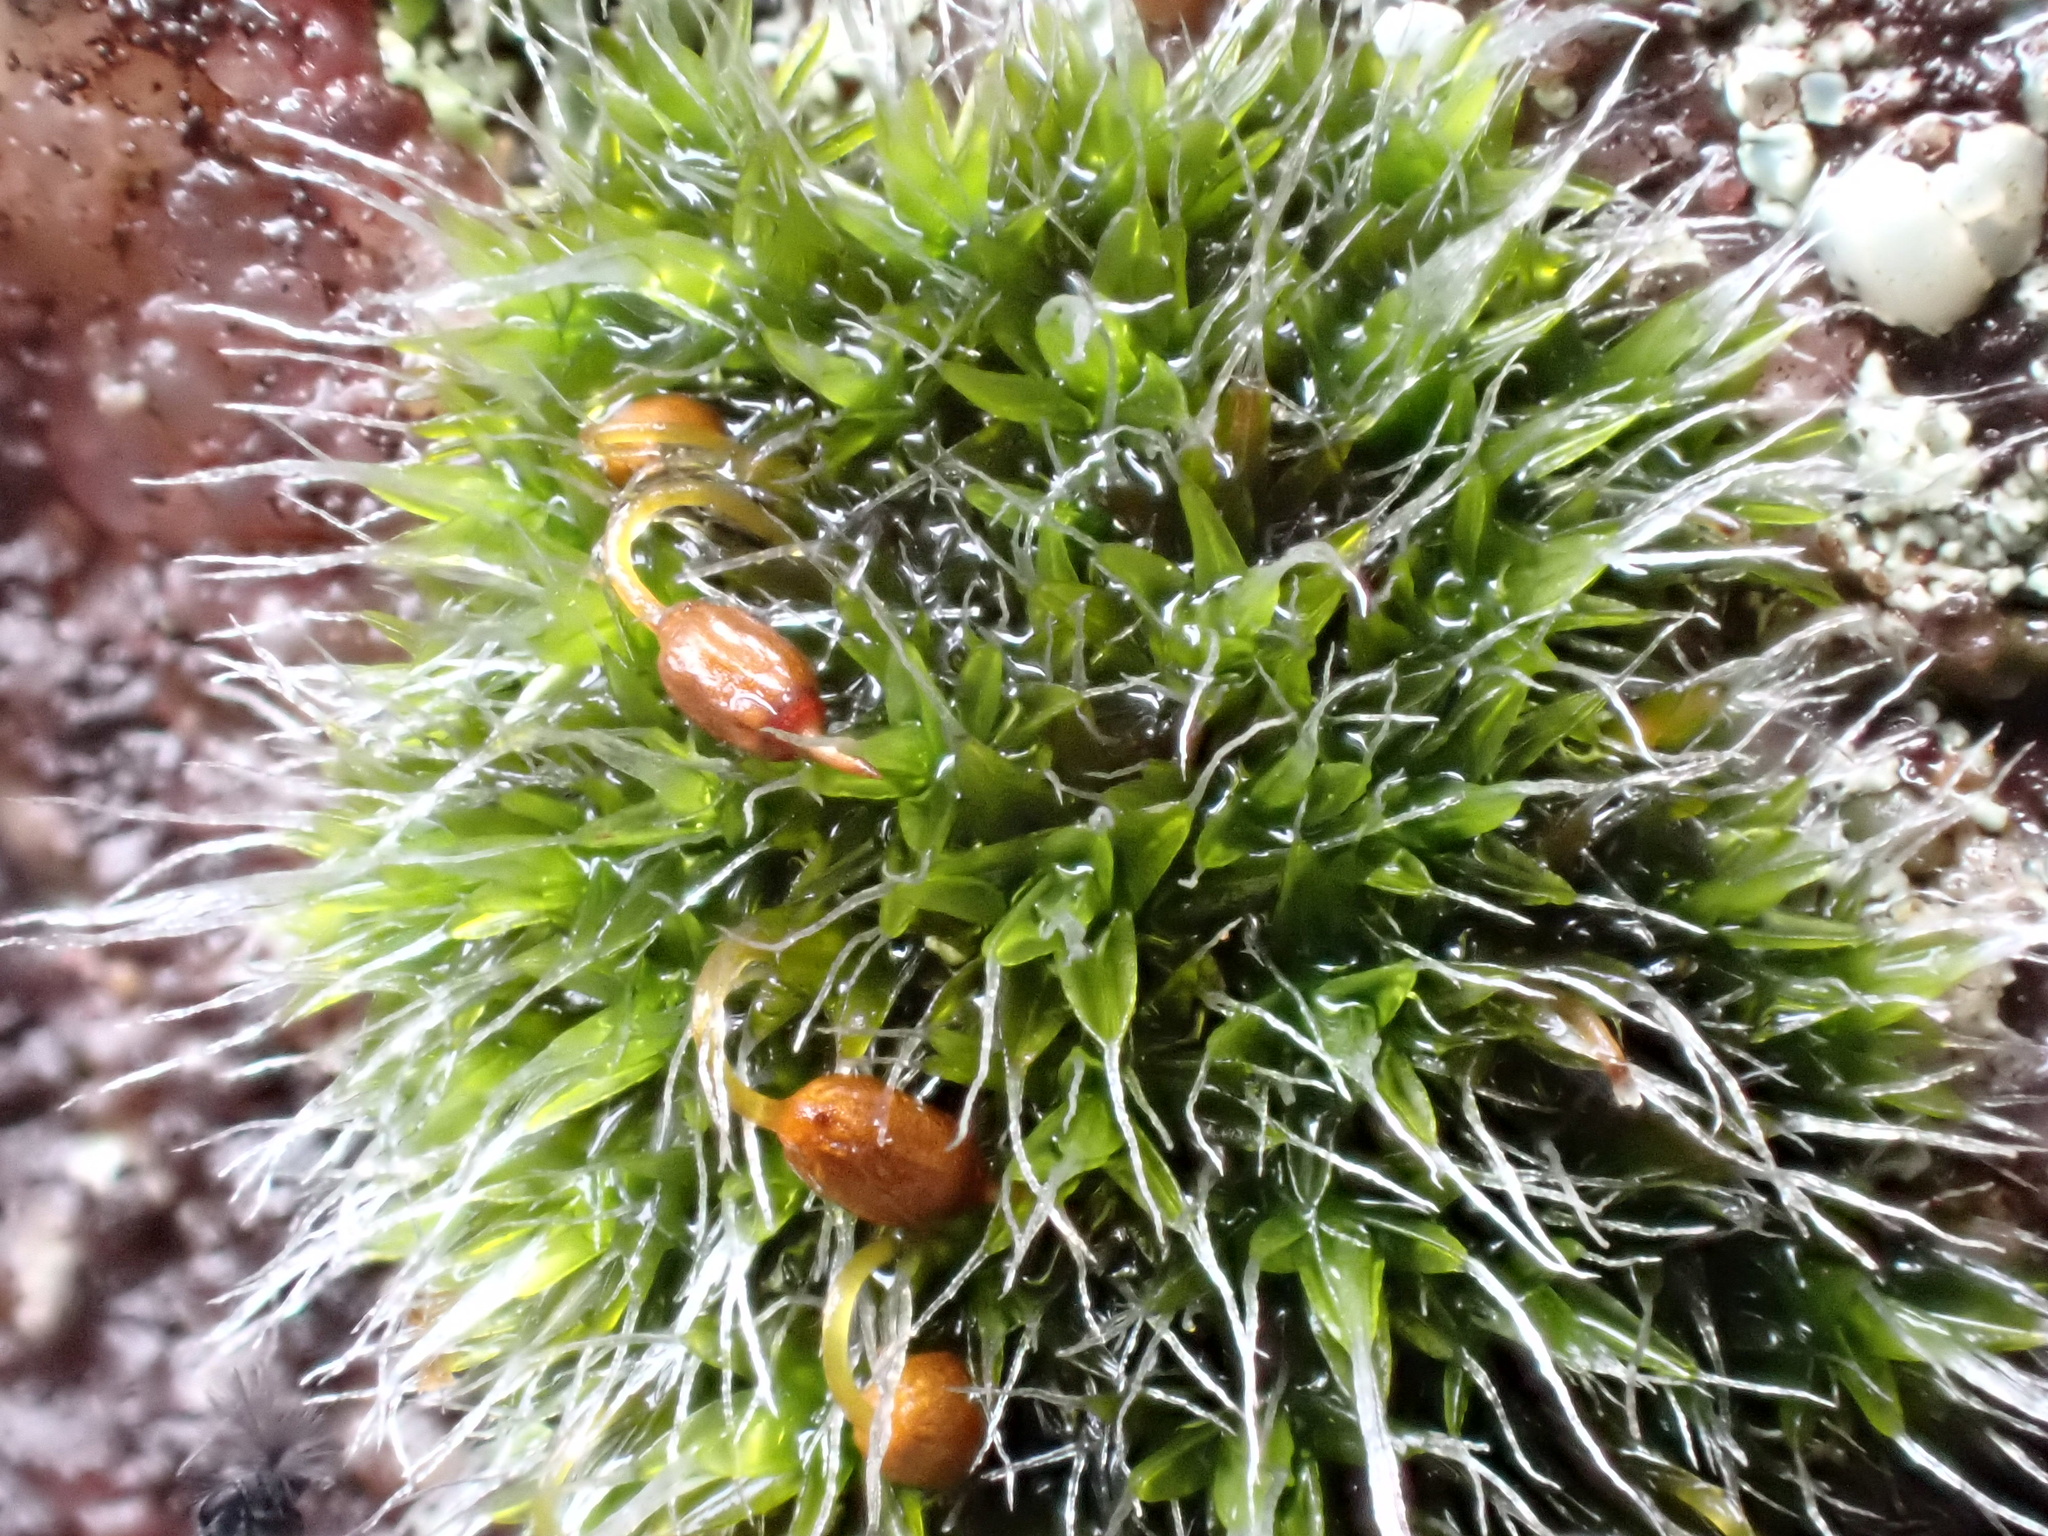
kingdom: Plantae
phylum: Bryophyta
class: Bryopsida
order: Grimmiales
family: Grimmiaceae
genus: Grimmia
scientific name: Grimmia pulvinata
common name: Grey-cushioned grimmia
